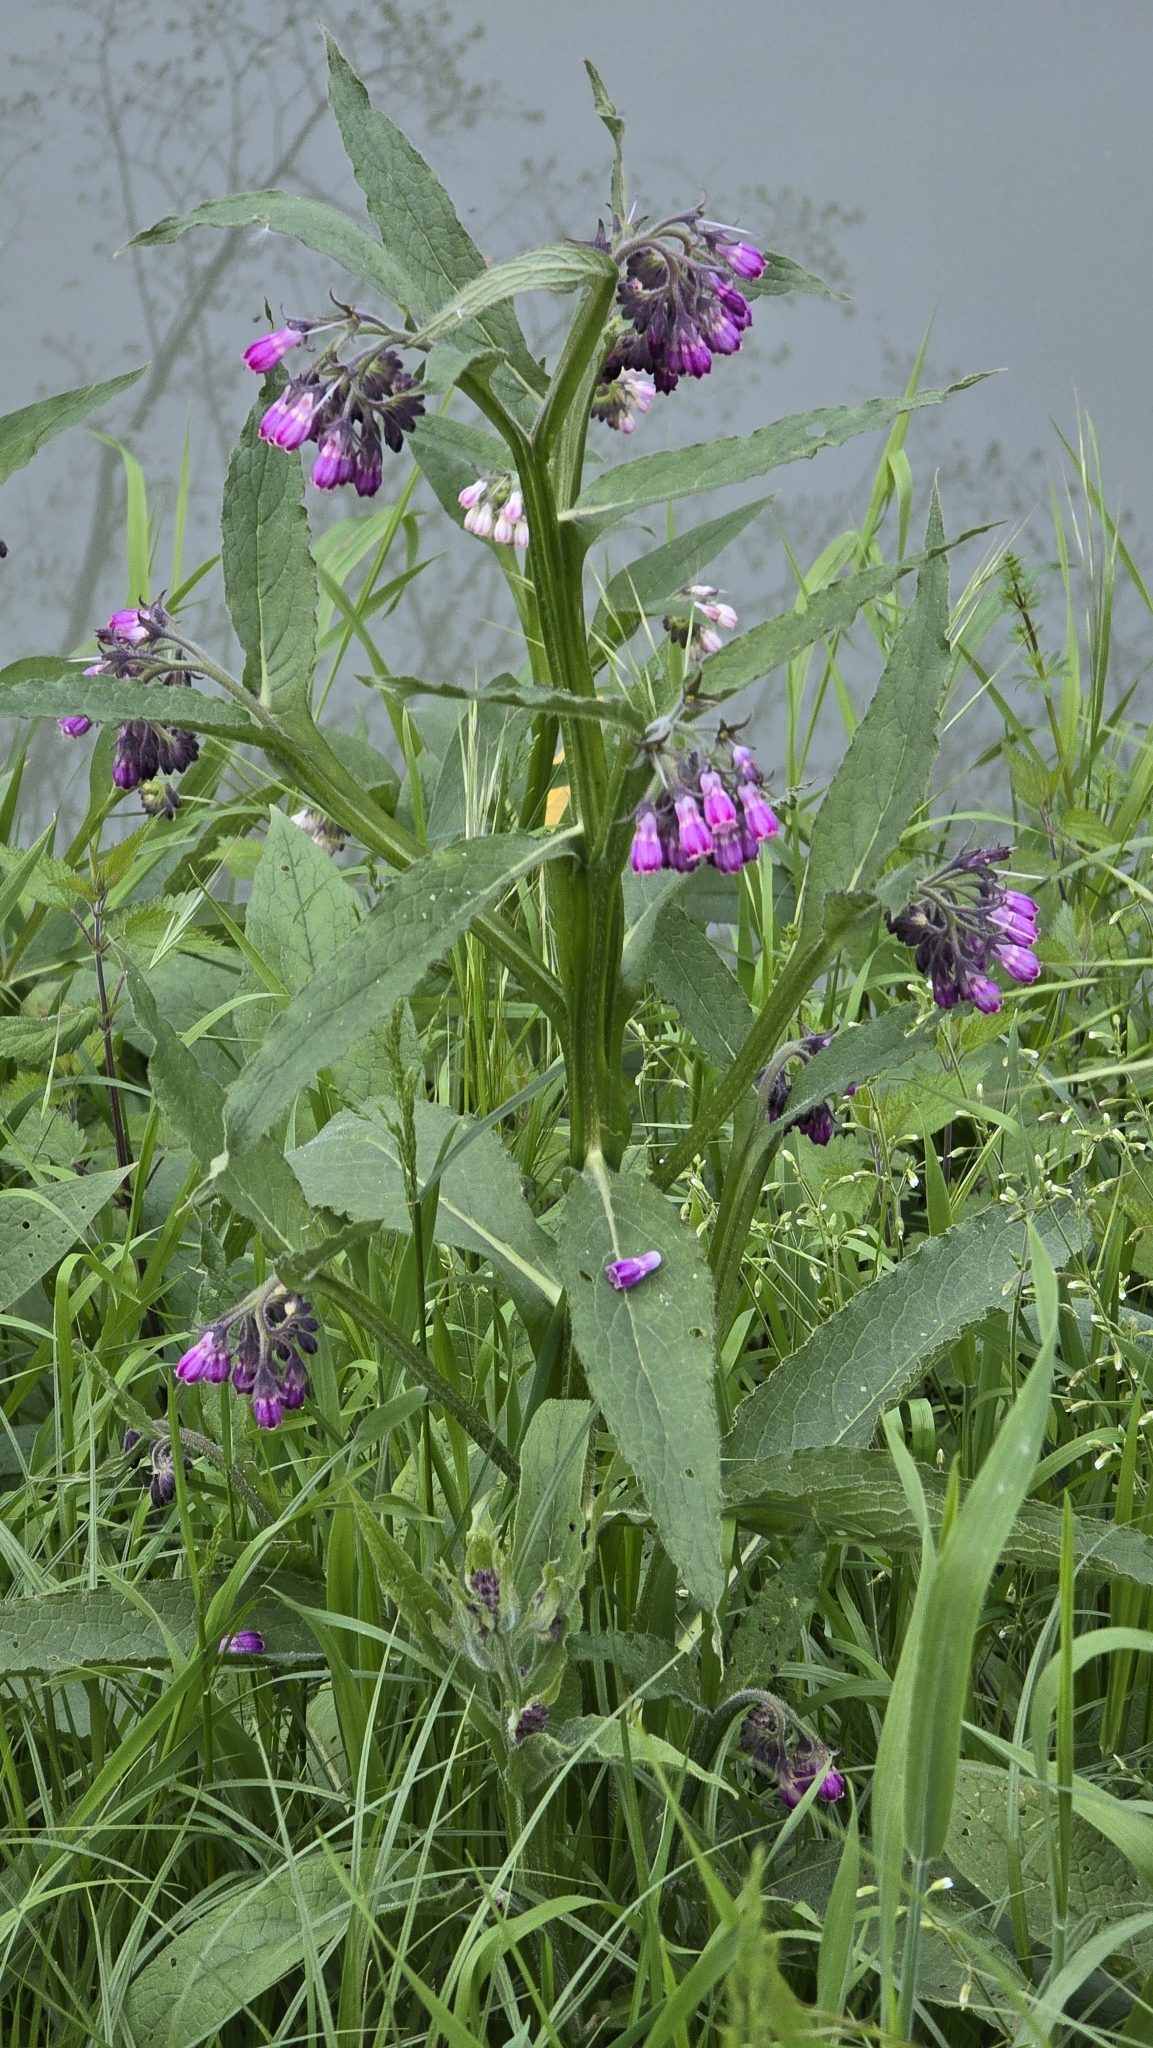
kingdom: Plantae
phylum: Tracheophyta
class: Magnoliopsida
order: Boraginales
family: Boraginaceae
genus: Symphytum
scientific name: Symphytum officinale
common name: Common comfrey
